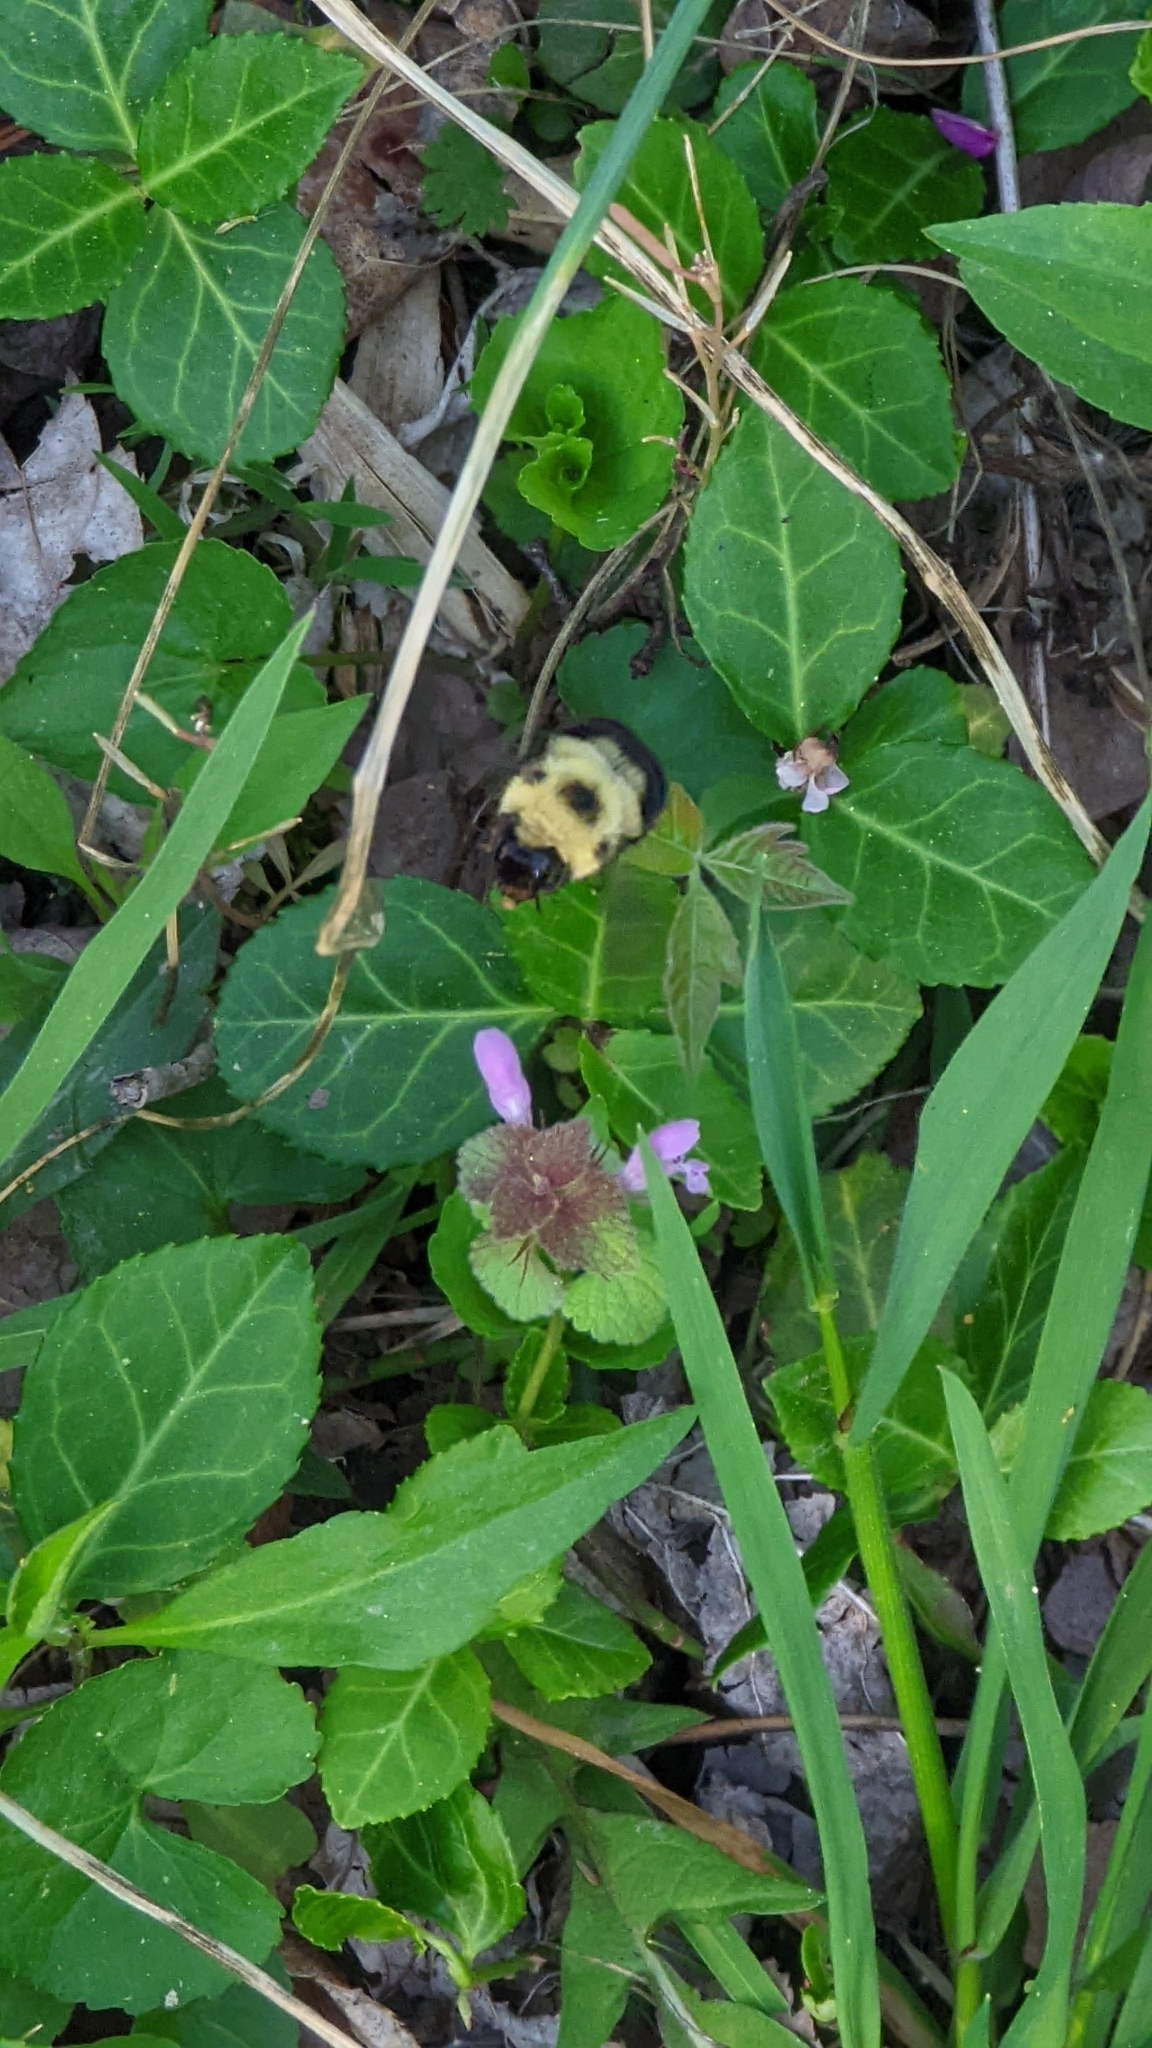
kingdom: Animalia
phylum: Arthropoda
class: Insecta
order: Hymenoptera
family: Apidae
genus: Bombus
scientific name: Bombus bimaculatus
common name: Two-spotted bumble bee
